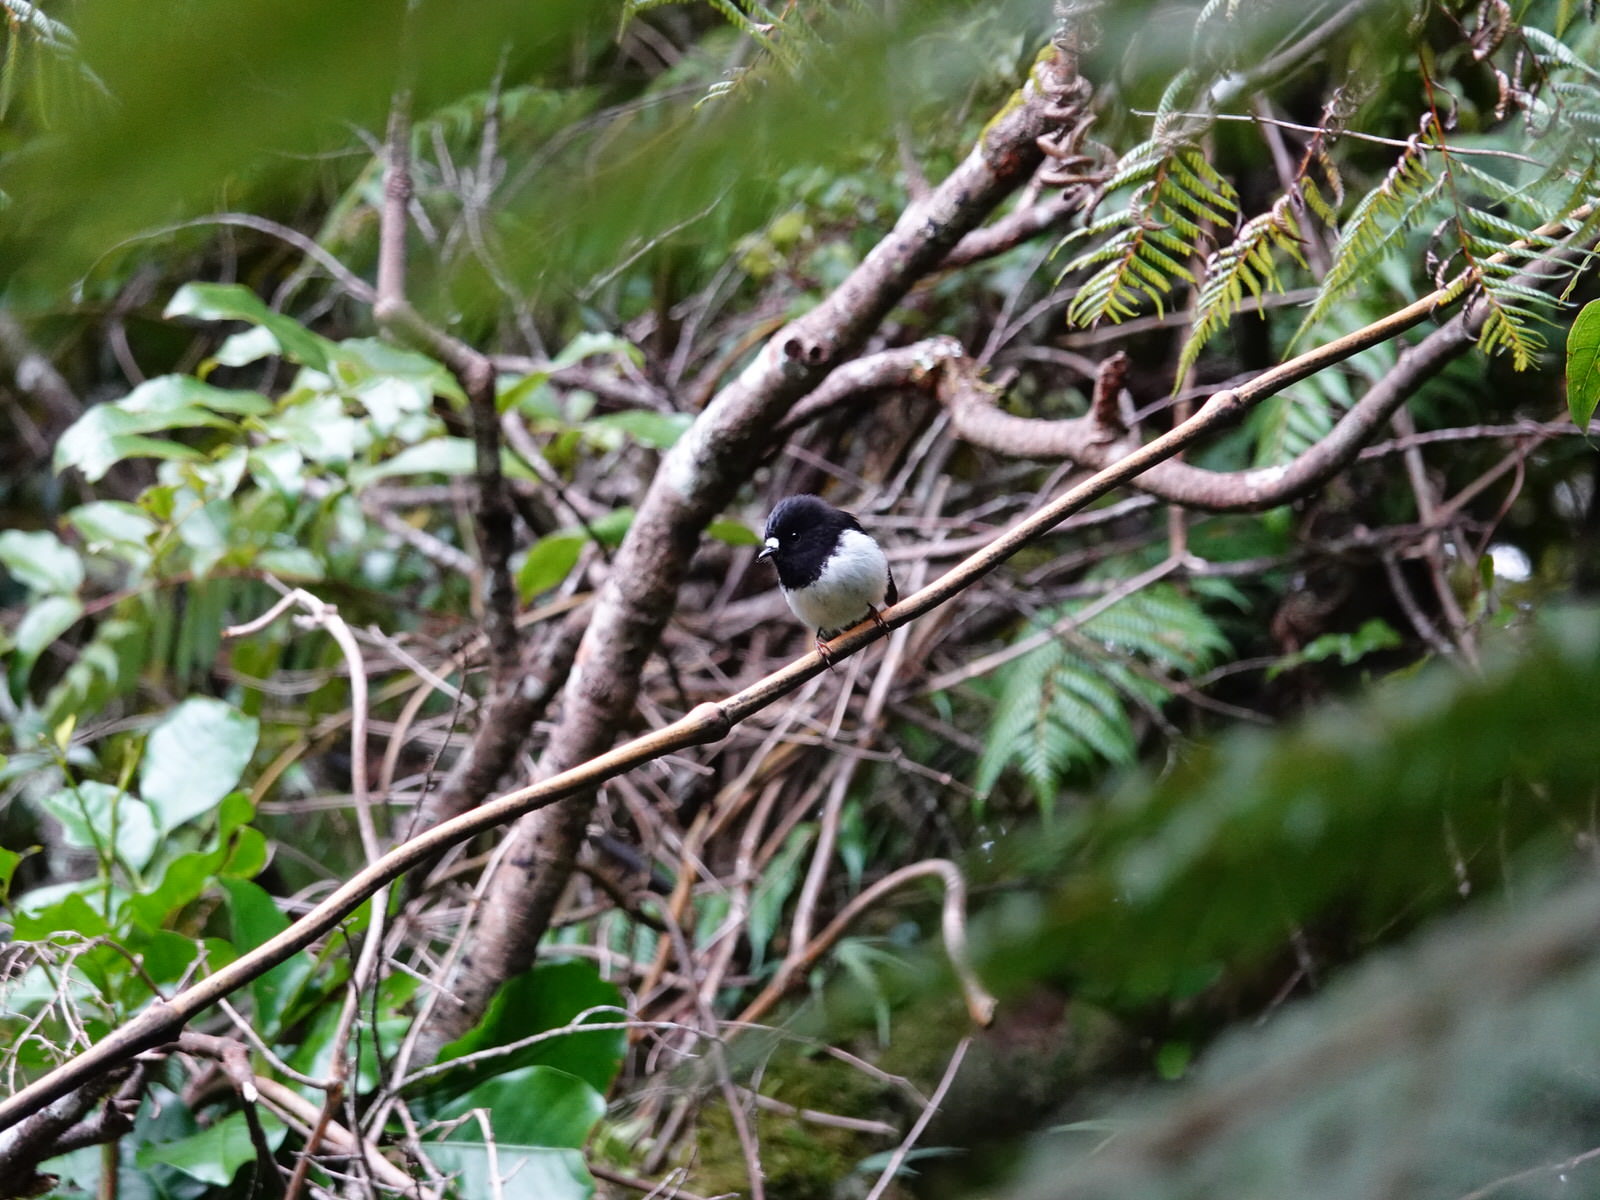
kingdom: Animalia
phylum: Chordata
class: Aves
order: Passeriformes
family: Petroicidae
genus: Petroica
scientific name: Petroica macrocephala
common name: Tomtit
